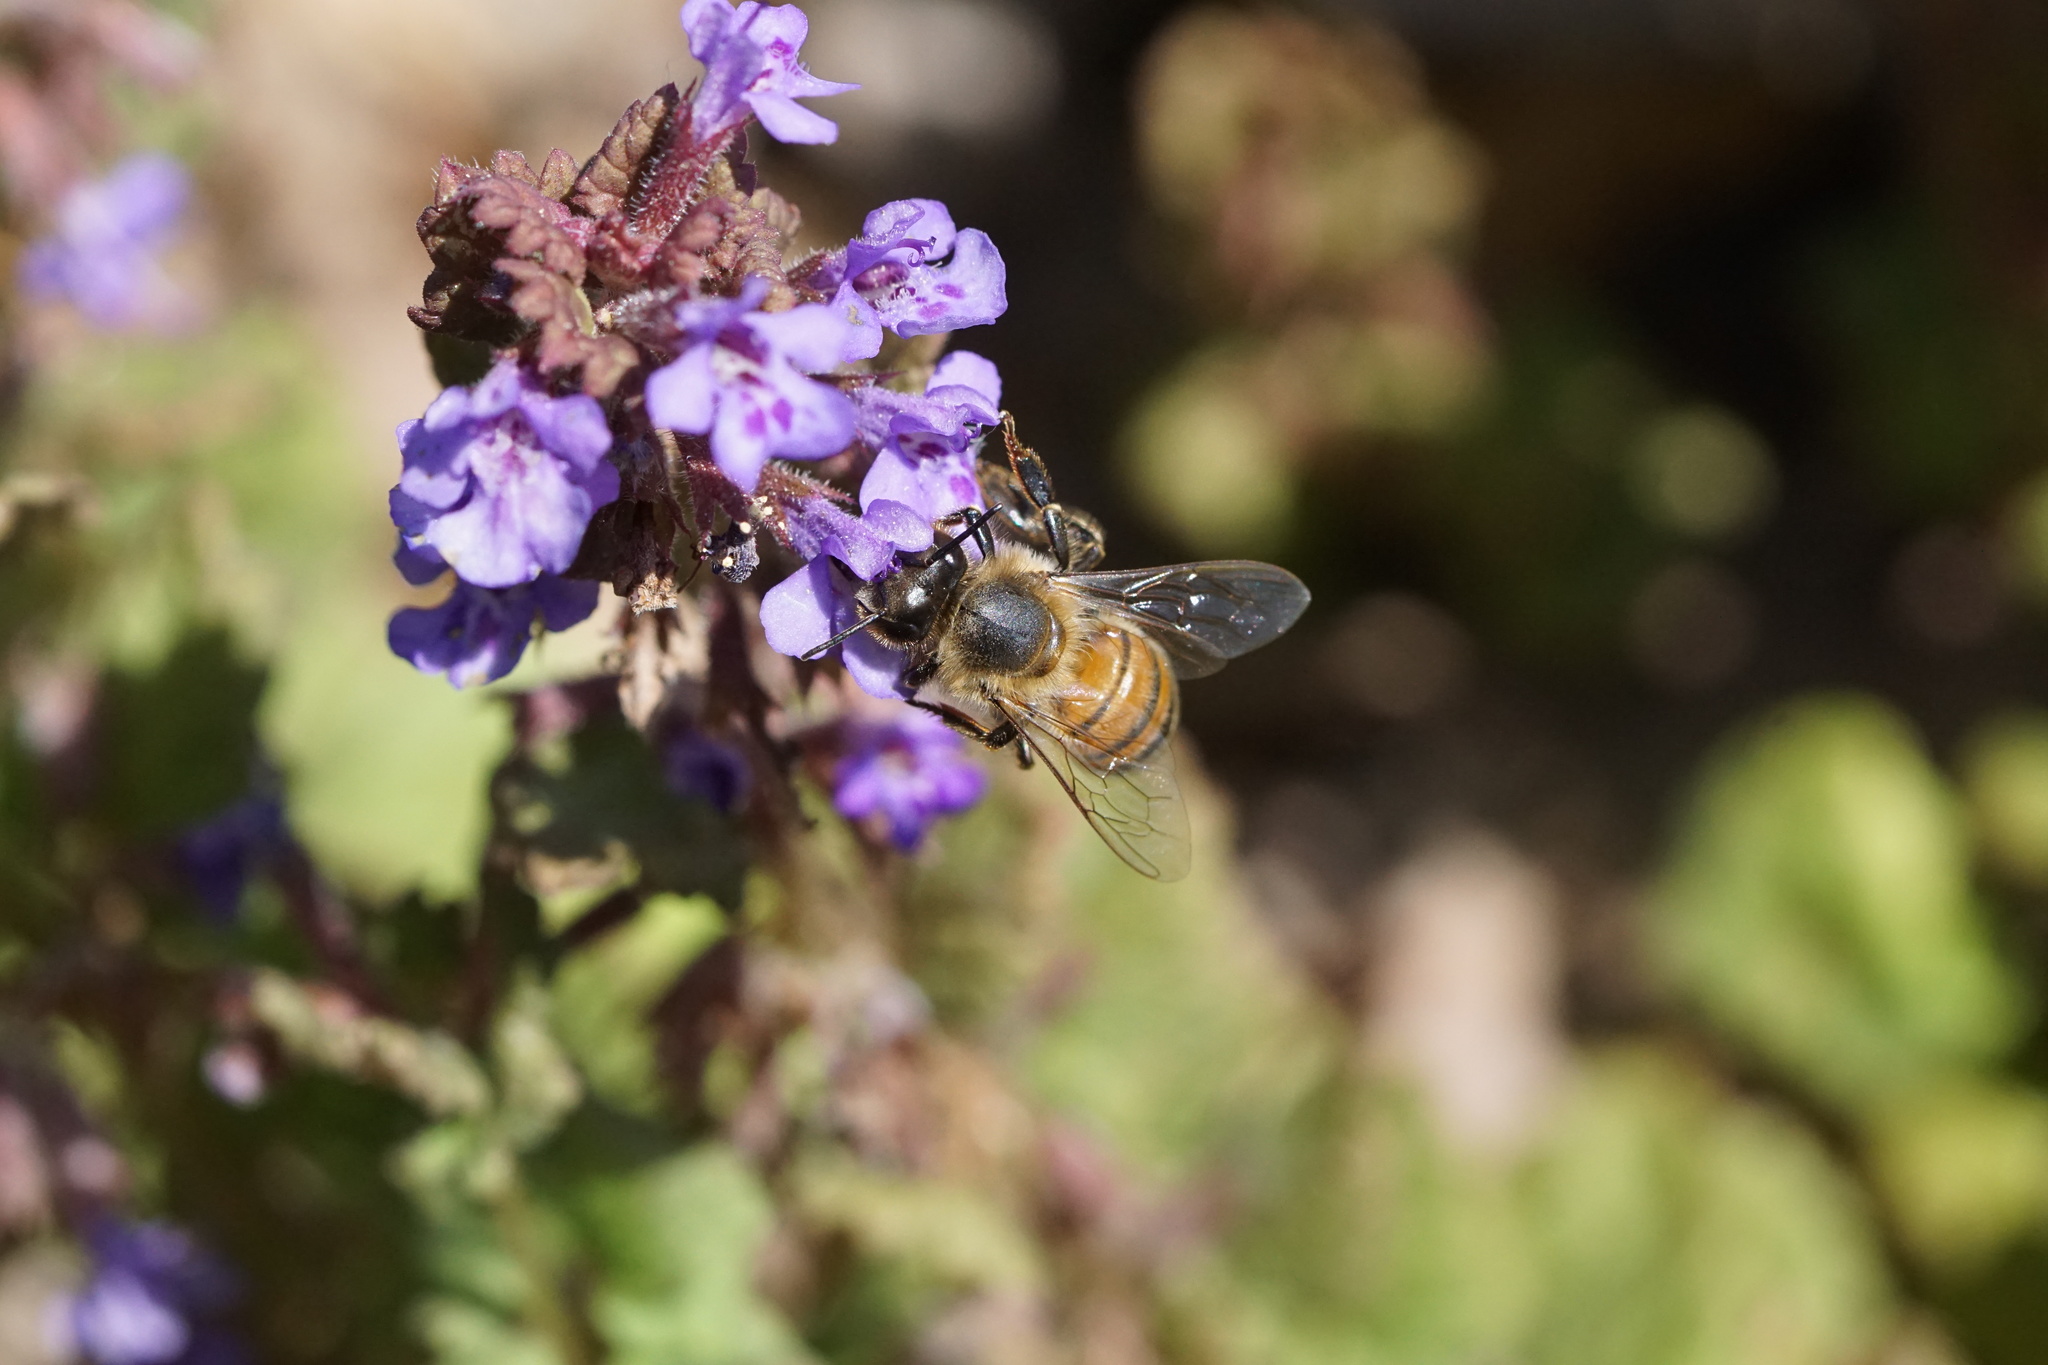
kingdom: Animalia
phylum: Arthropoda
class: Insecta
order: Hymenoptera
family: Apidae
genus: Apis
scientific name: Apis mellifera
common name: Honey bee
